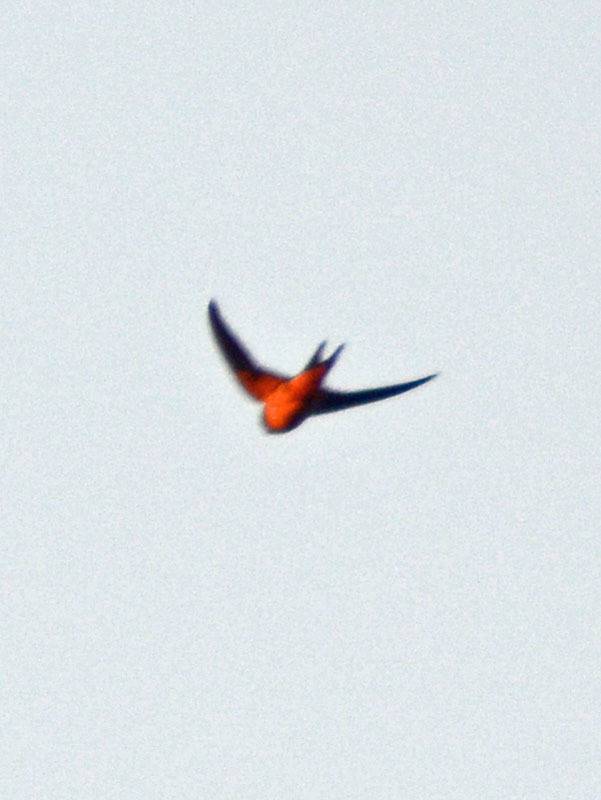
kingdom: Animalia
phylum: Chordata
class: Aves
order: Passeriformes
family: Hirundinidae
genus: Hirundo
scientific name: Hirundo rustica
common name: Barn swallow
